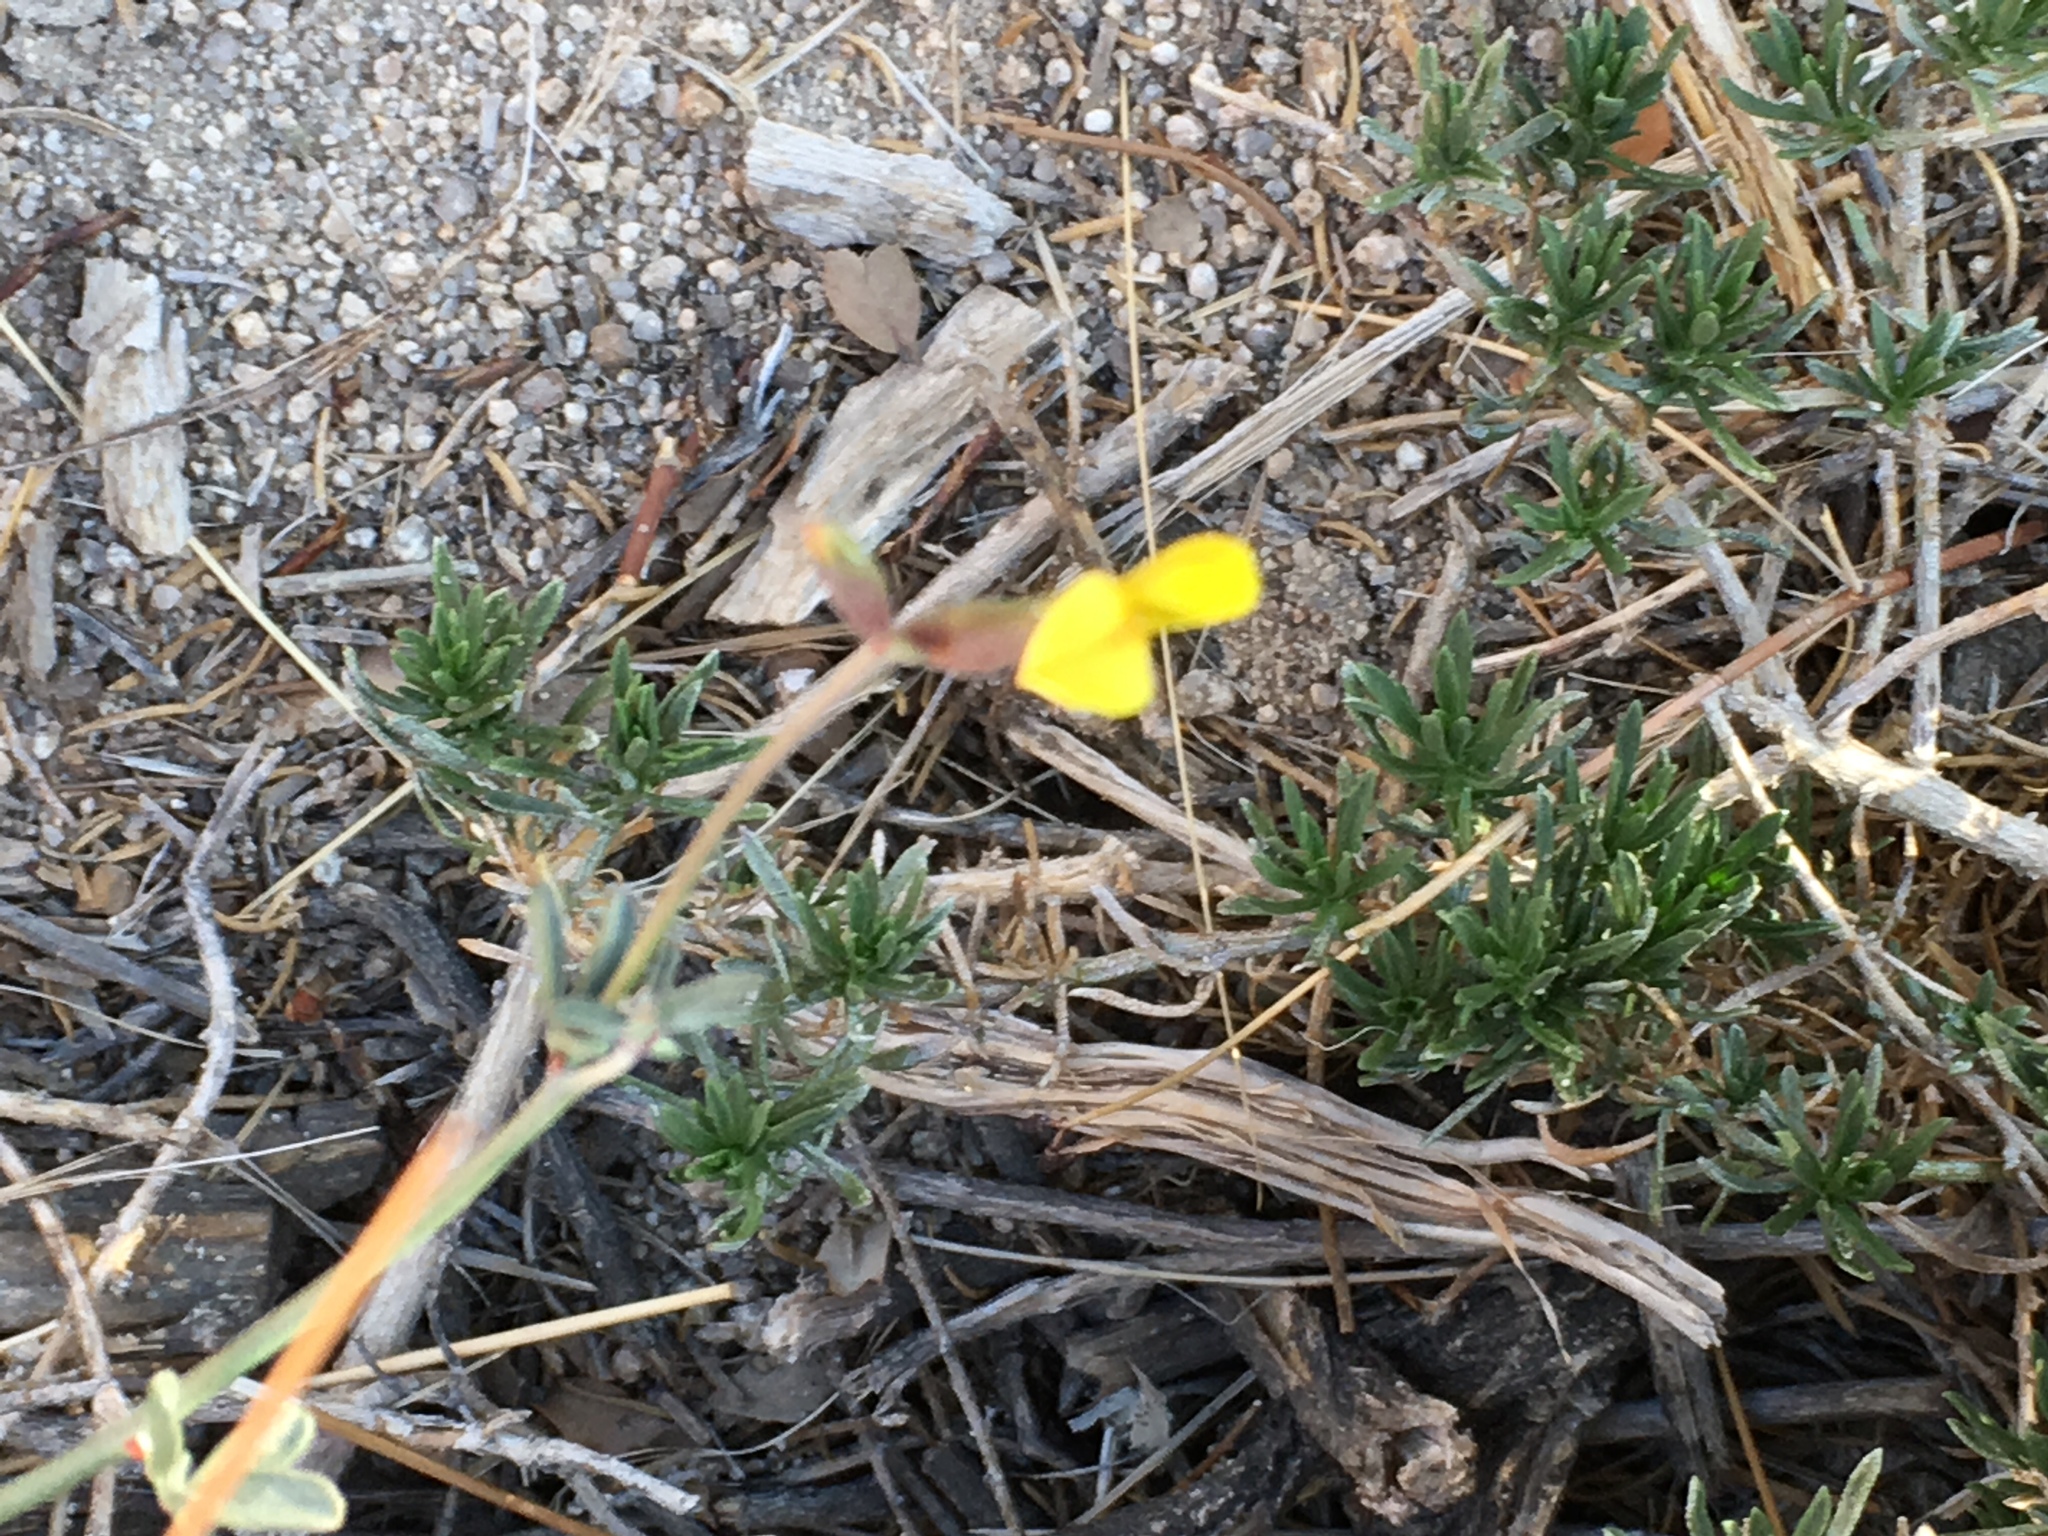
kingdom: Plantae
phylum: Tracheophyta
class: Magnoliopsida
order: Fabales
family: Fabaceae
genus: Acmispon
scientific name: Acmispon rigidus
